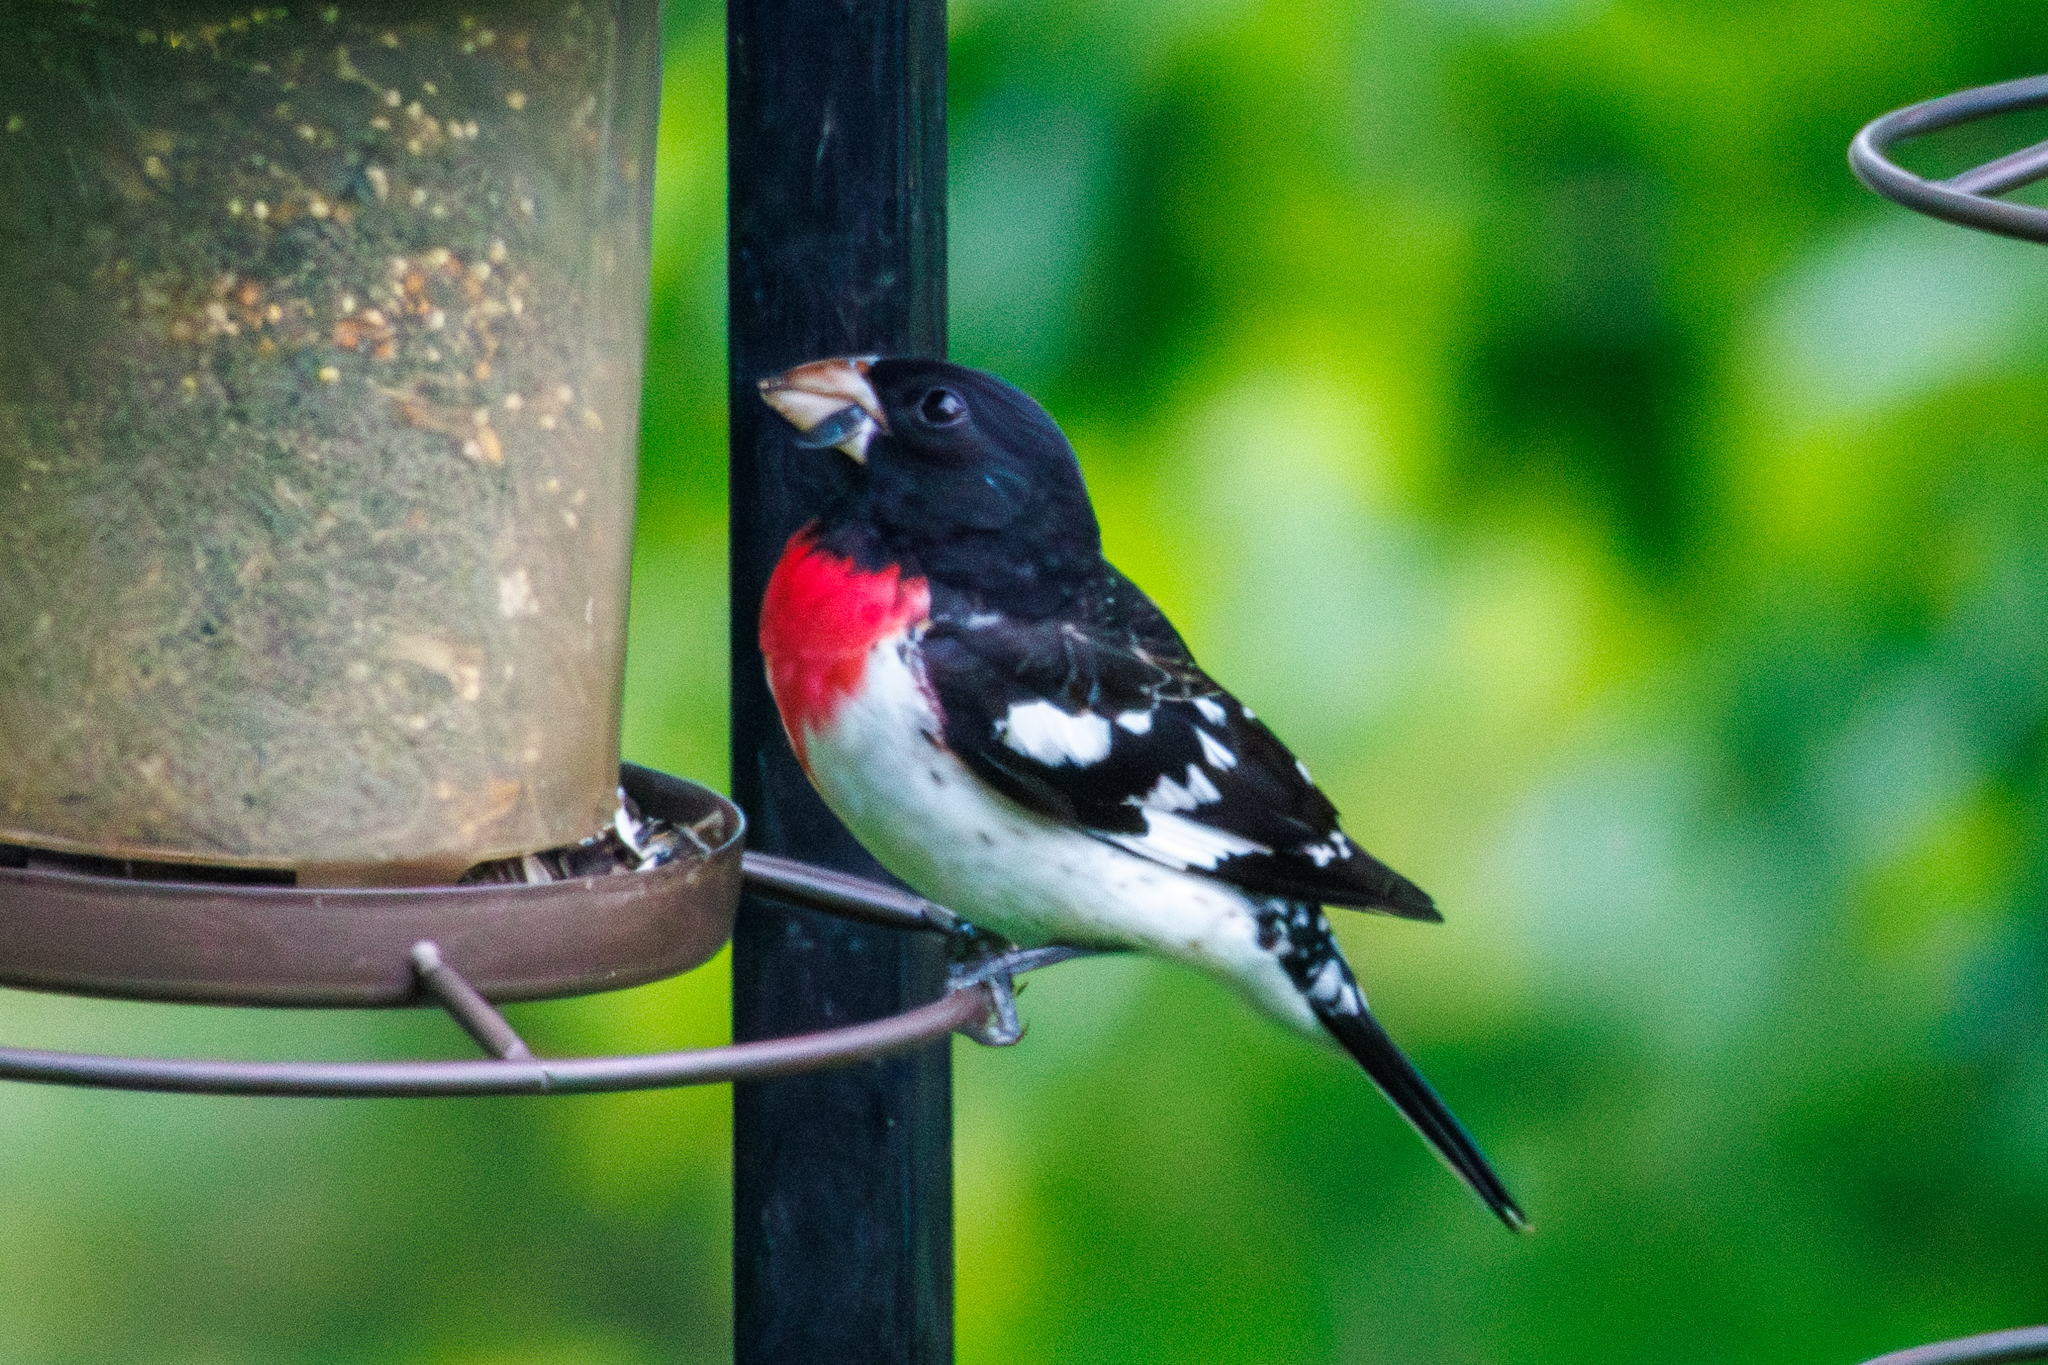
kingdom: Animalia
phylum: Chordata
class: Aves
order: Passeriformes
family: Cardinalidae
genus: Pheucticus
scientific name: Pheucticus ludovicianus
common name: Rose-breasted grosbeak
